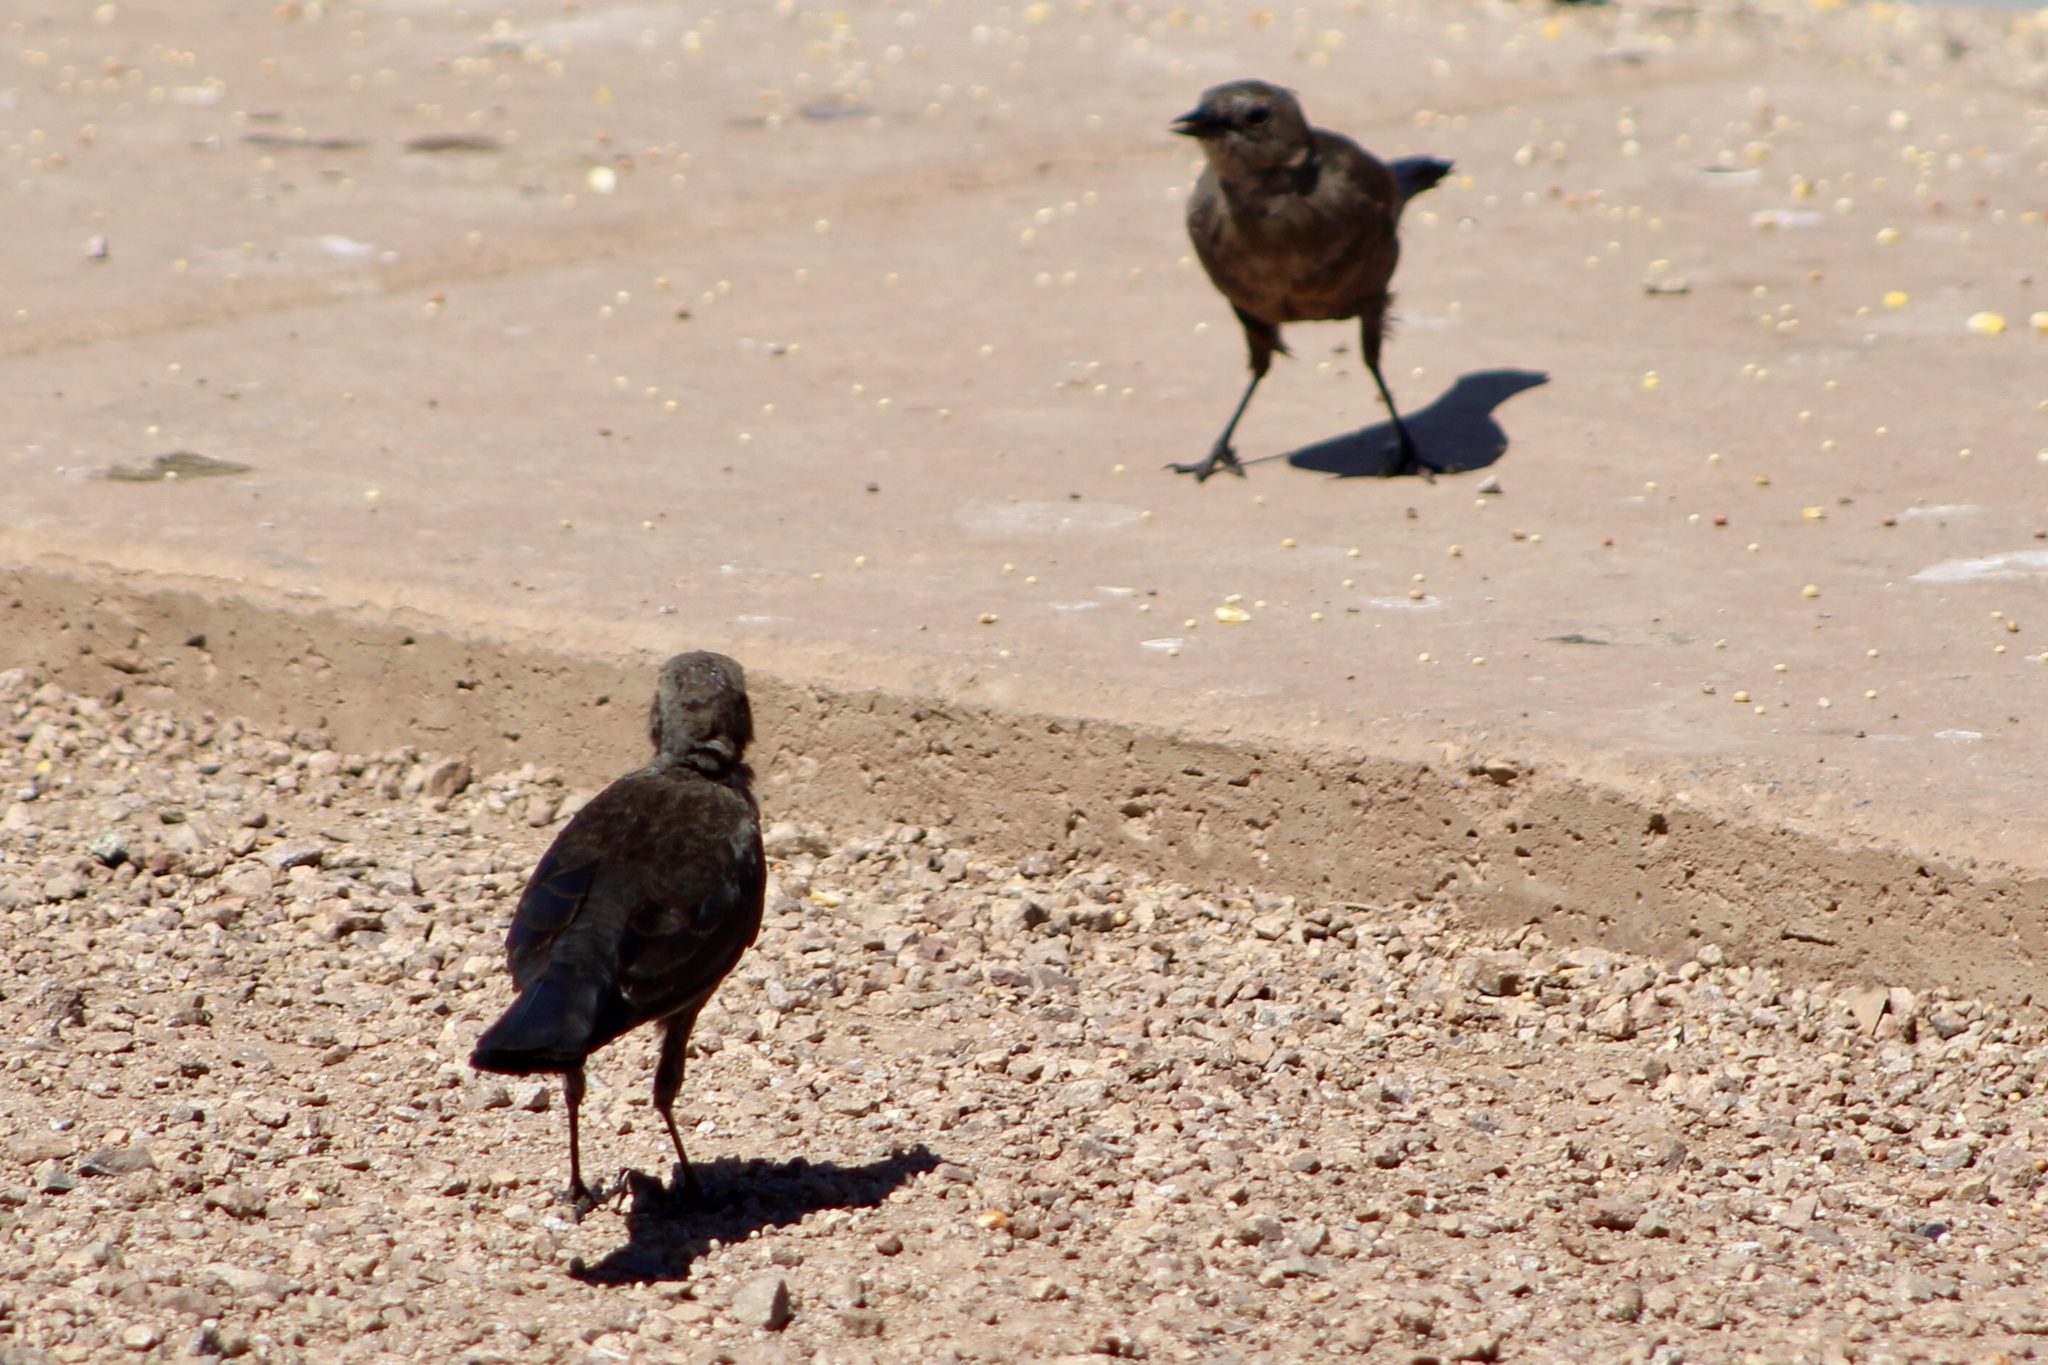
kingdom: Animalia
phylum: Chordata
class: Aves
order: Passeriformes
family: Icteridae
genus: Euphagus
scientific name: Euphagus cyanocephalus
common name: Brewer's blackbird
